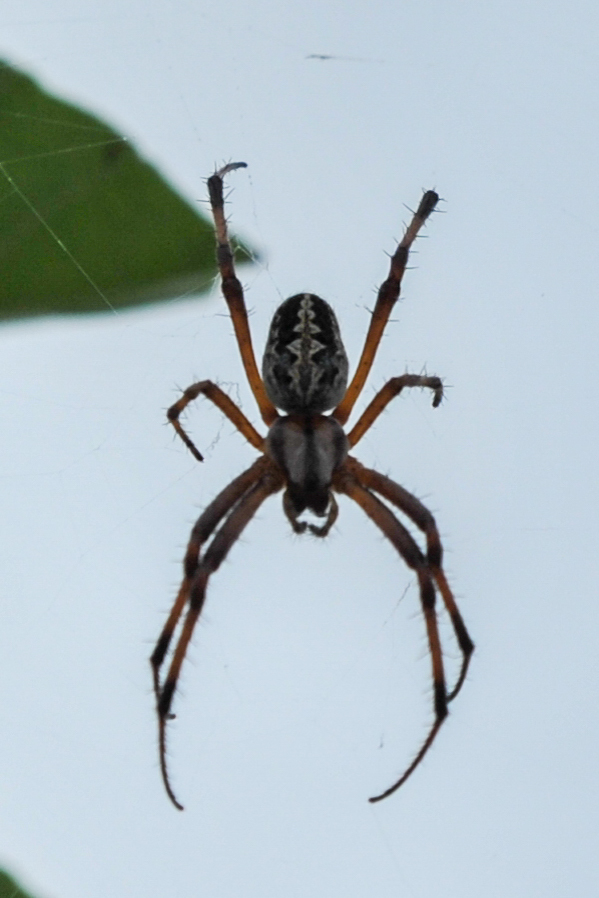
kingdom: Animalia
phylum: Arthropoda
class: Arachnida
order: Araneae
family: Araneidae
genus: Neoscona
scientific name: Neoscona oaxacensis
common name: Orb weavers
